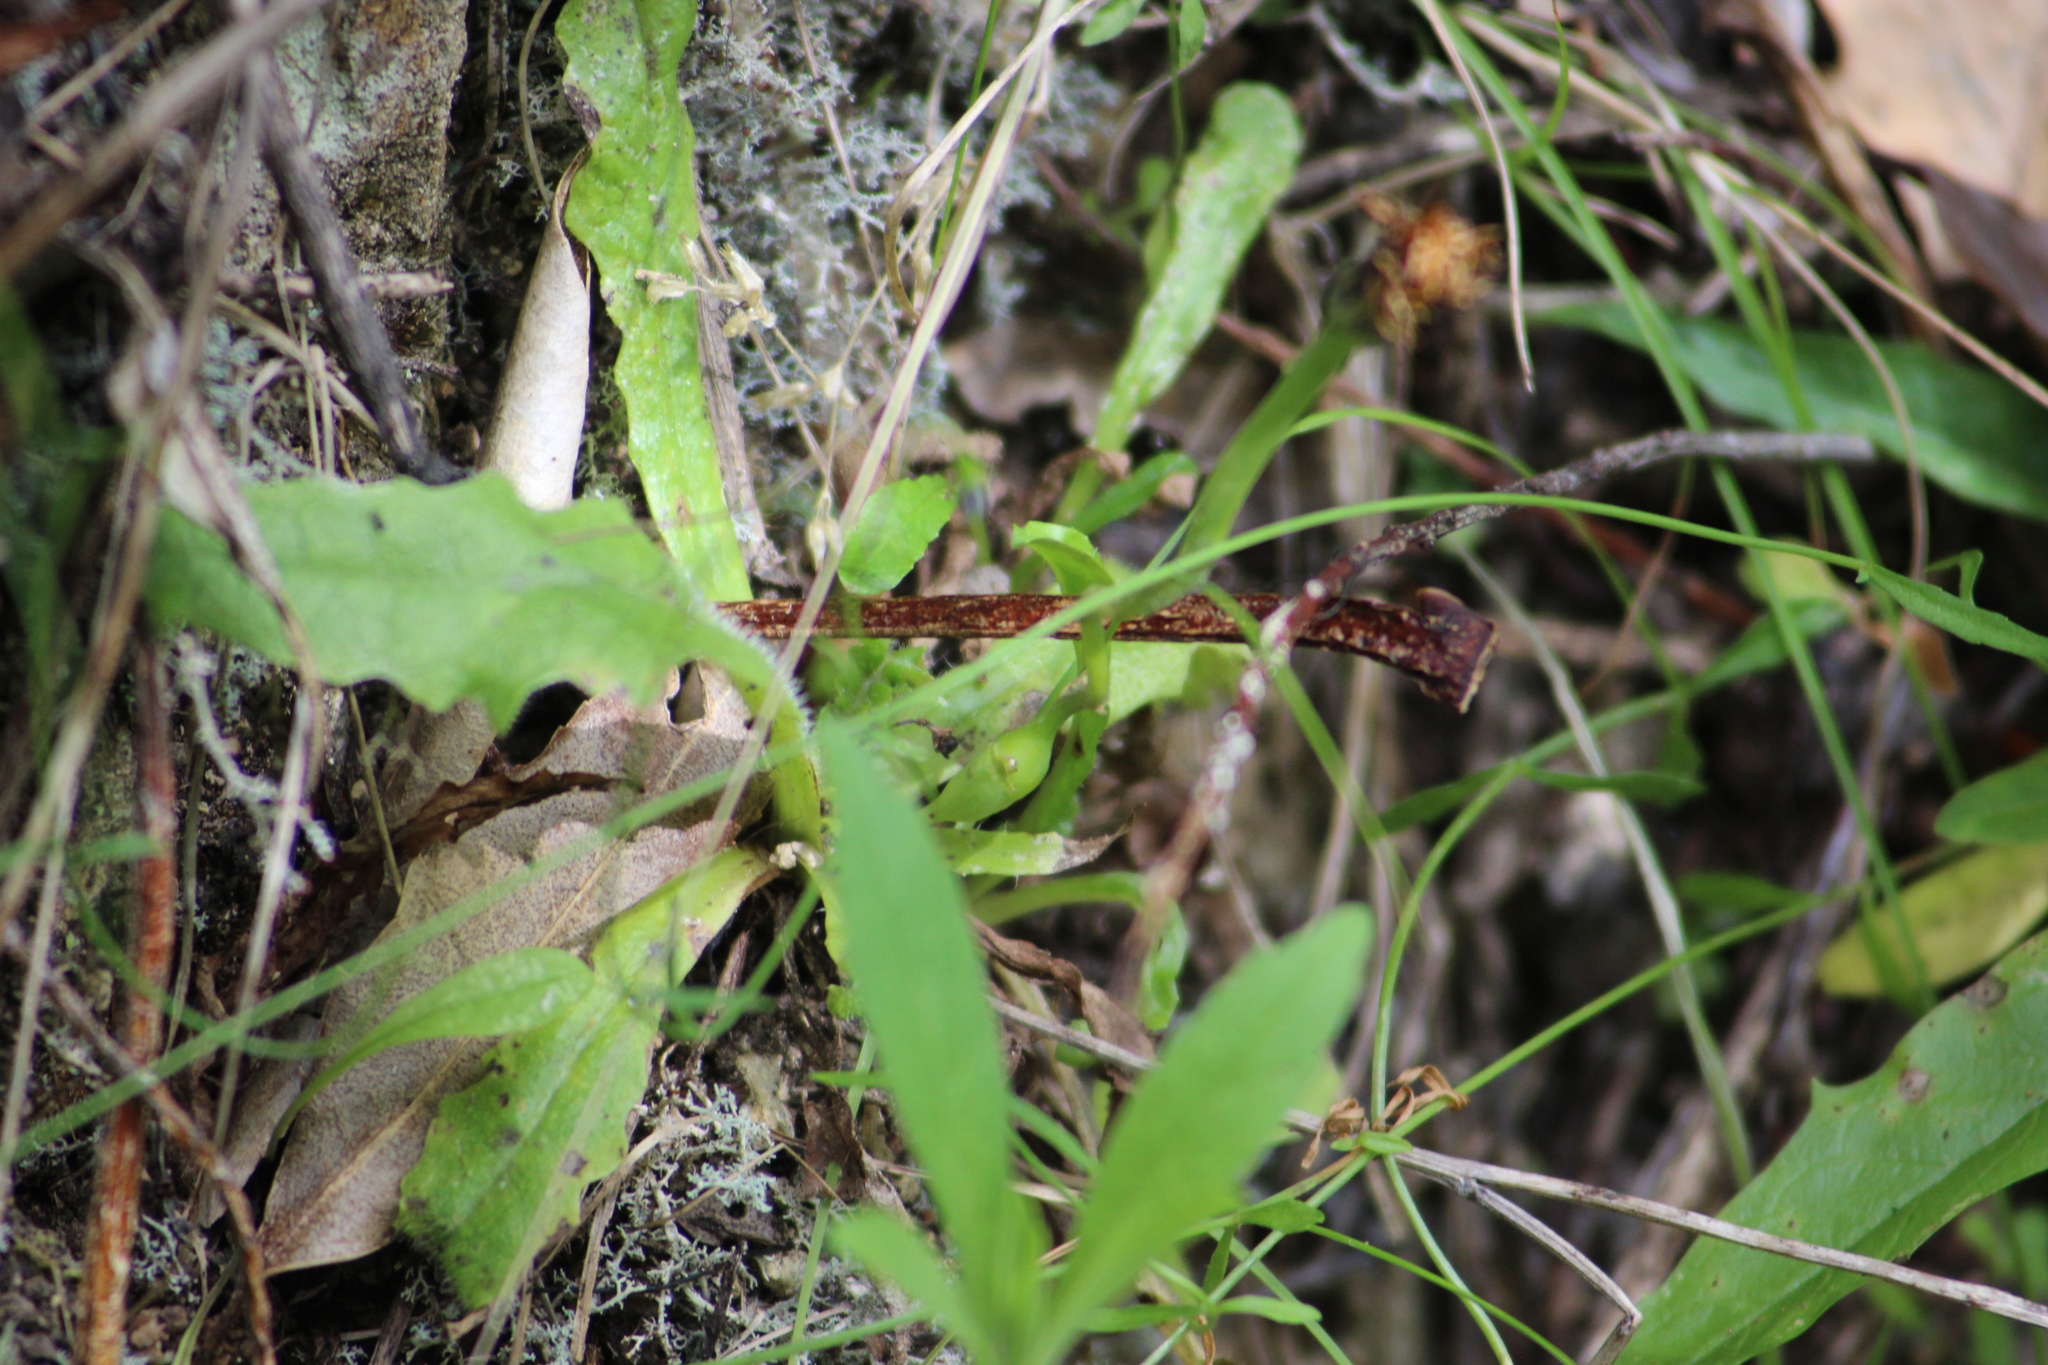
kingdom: Animalia
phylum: Arthropoda
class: Insecta
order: Hymenoptera
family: Cynipidae
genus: Phanacis
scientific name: Phanacis hypochoeridis
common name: Gall wasp
